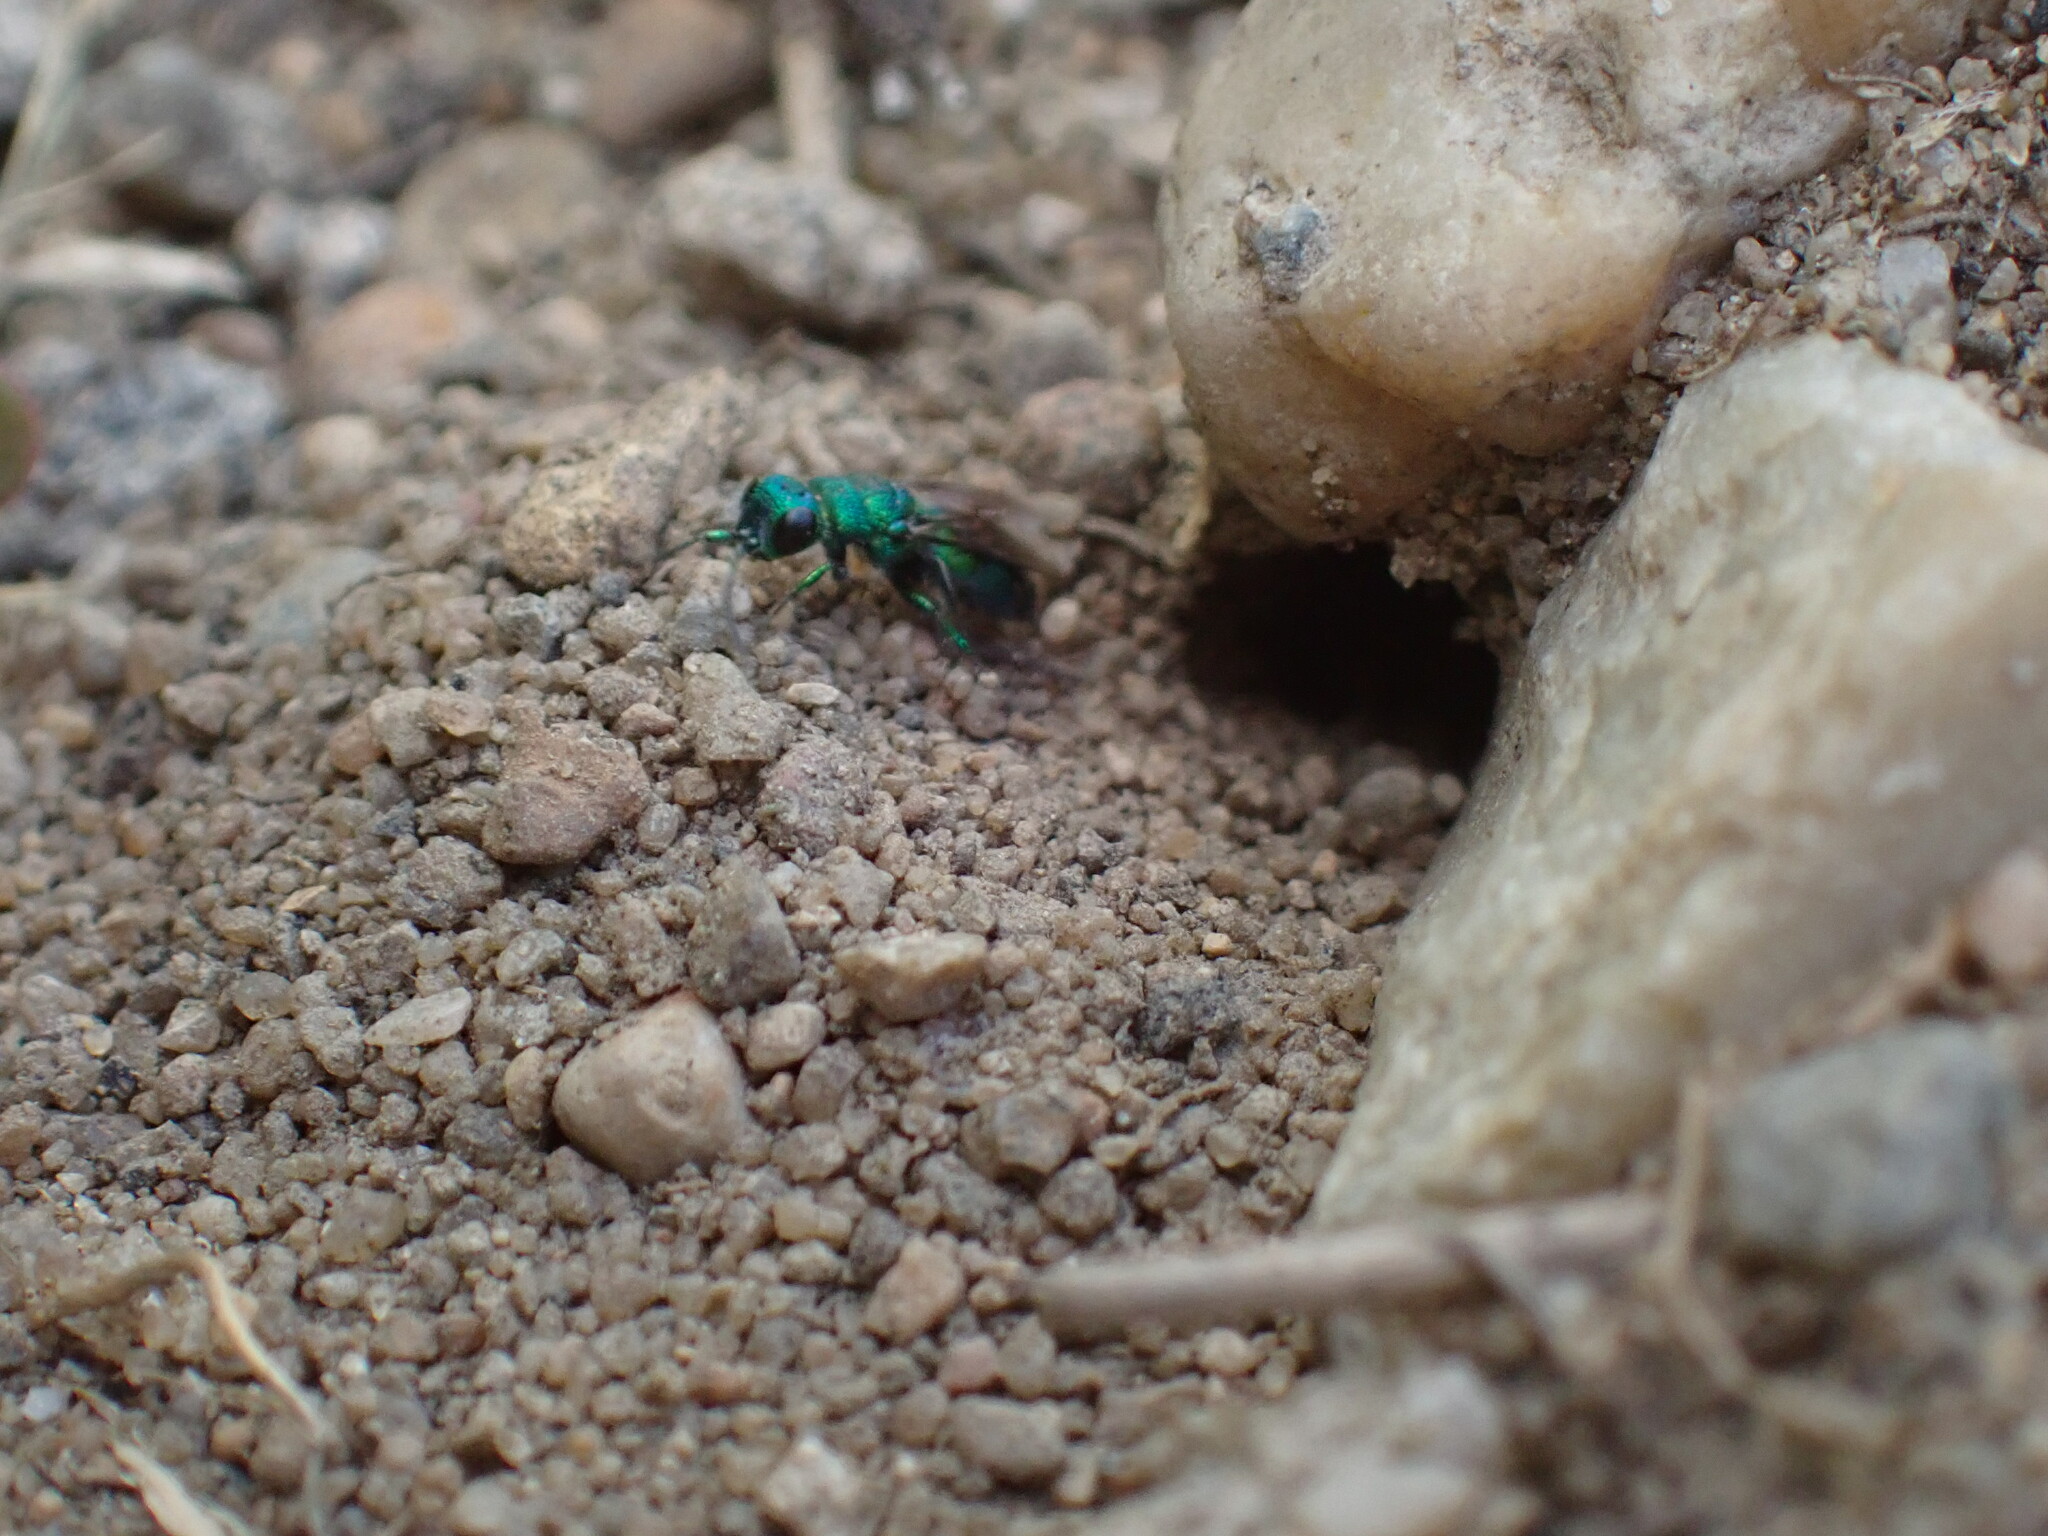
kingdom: Animalia
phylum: Arthropoda
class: Insecta
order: Hymenoptera
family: Chrysididae
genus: Chrysis
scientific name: Chrysis
